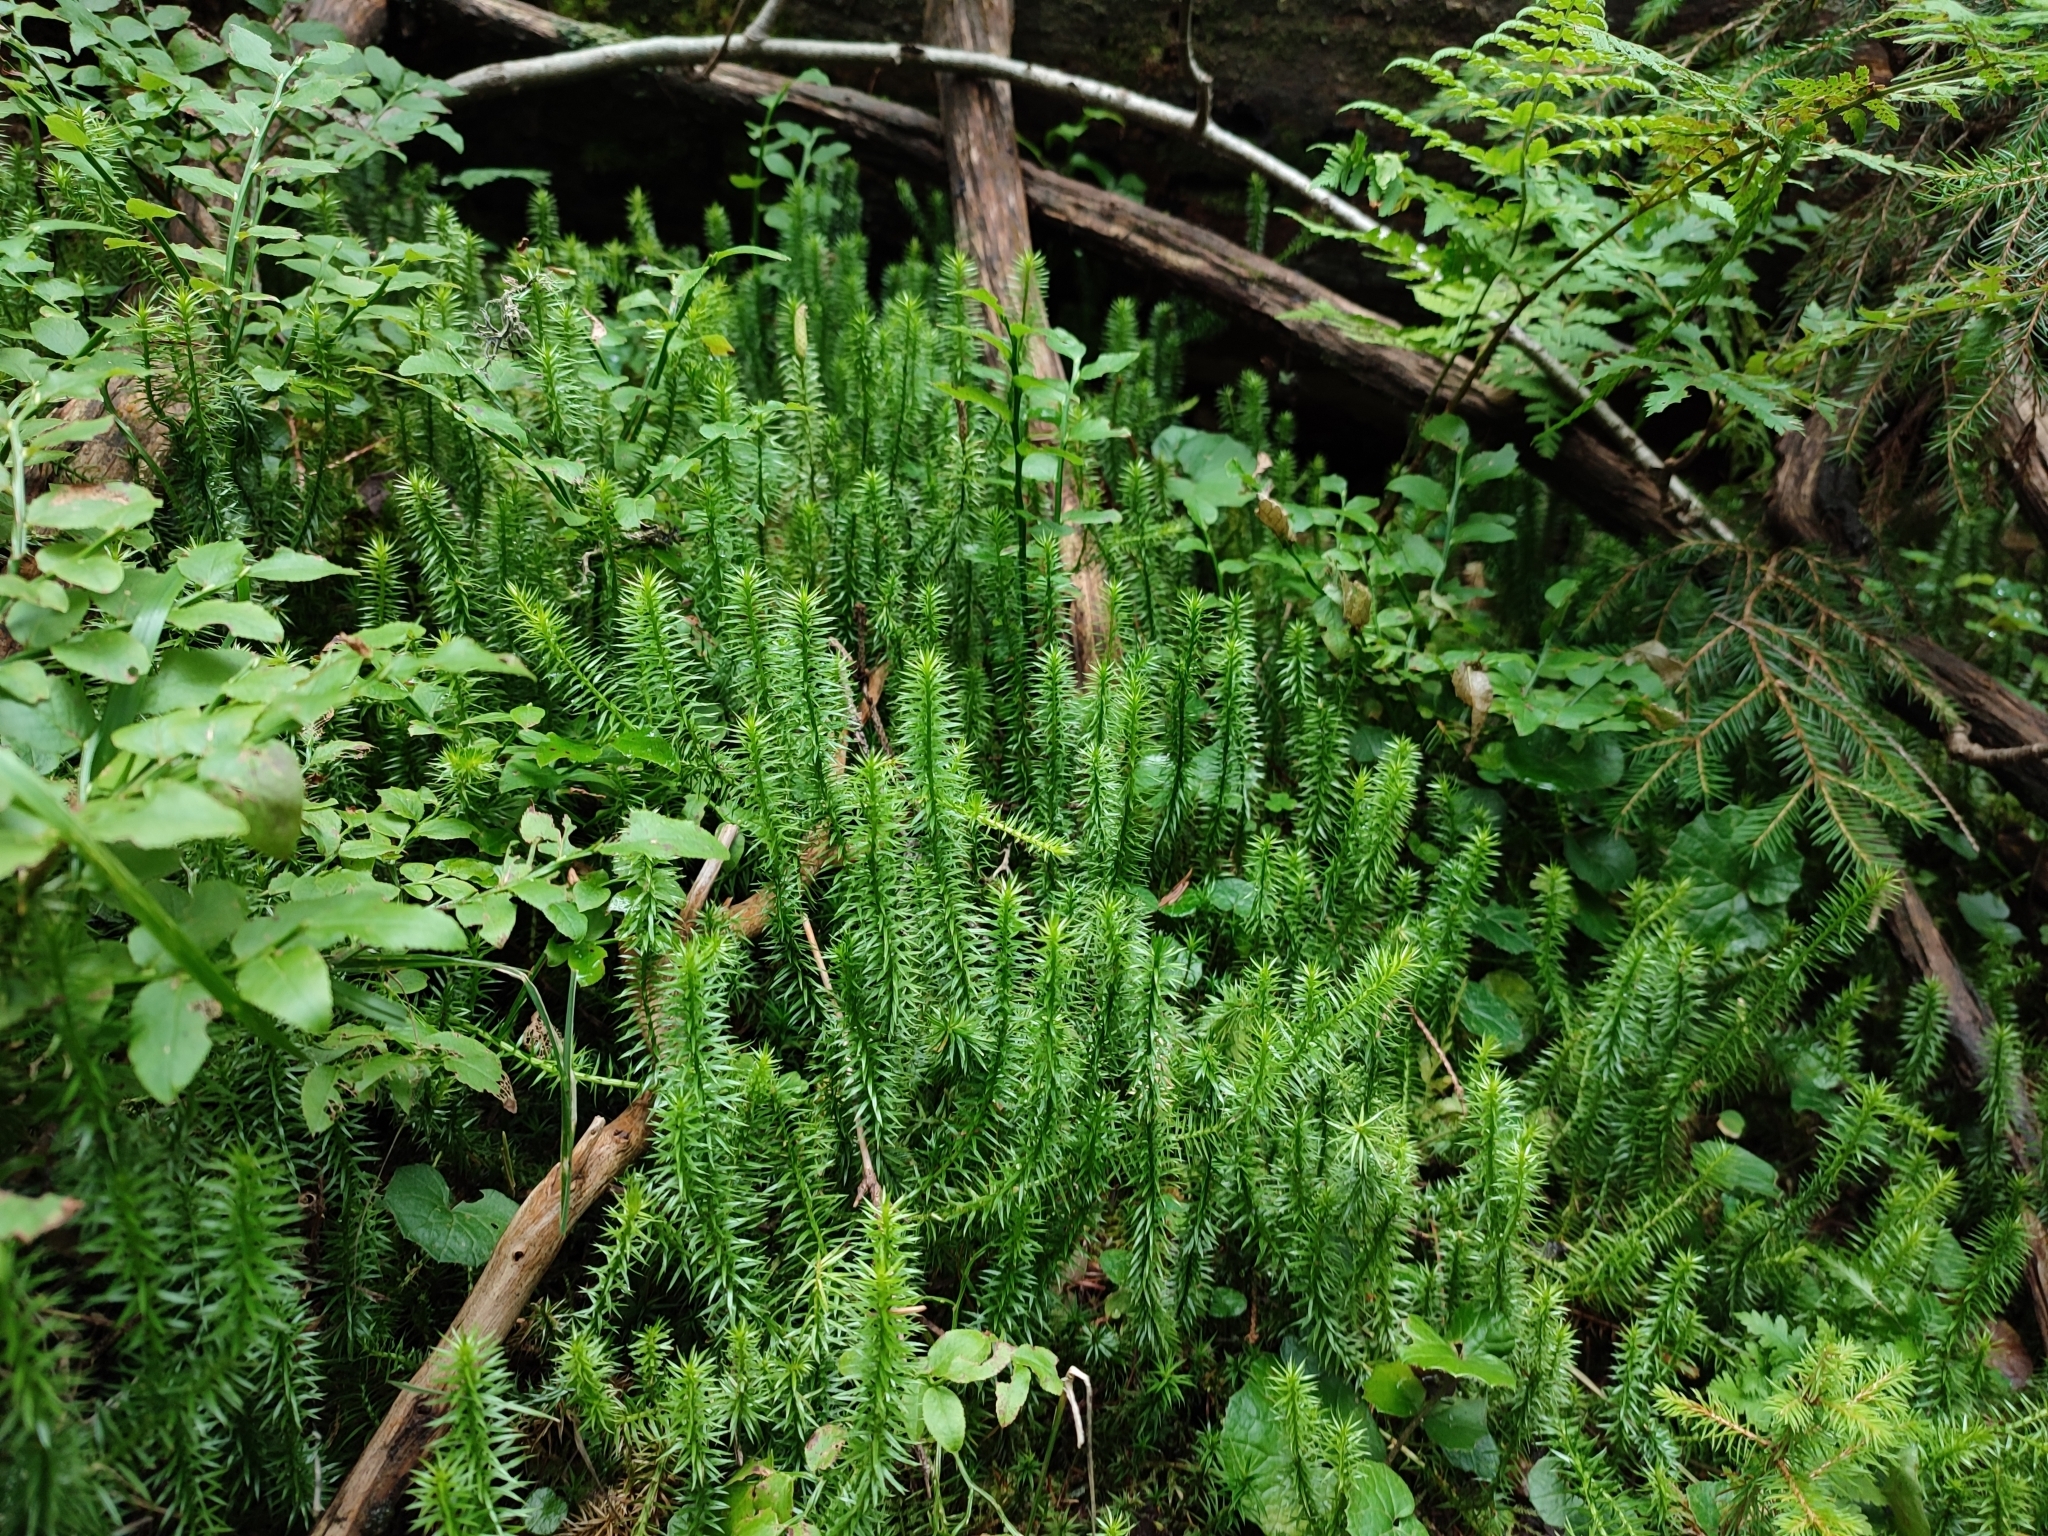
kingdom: Plantae
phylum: Tracheophyta
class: Lycopodiopsida
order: Lycopodiales
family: Lycopodiaceae
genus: Spinulum
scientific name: Spinulum annotinum
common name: Interrupted club-moss
